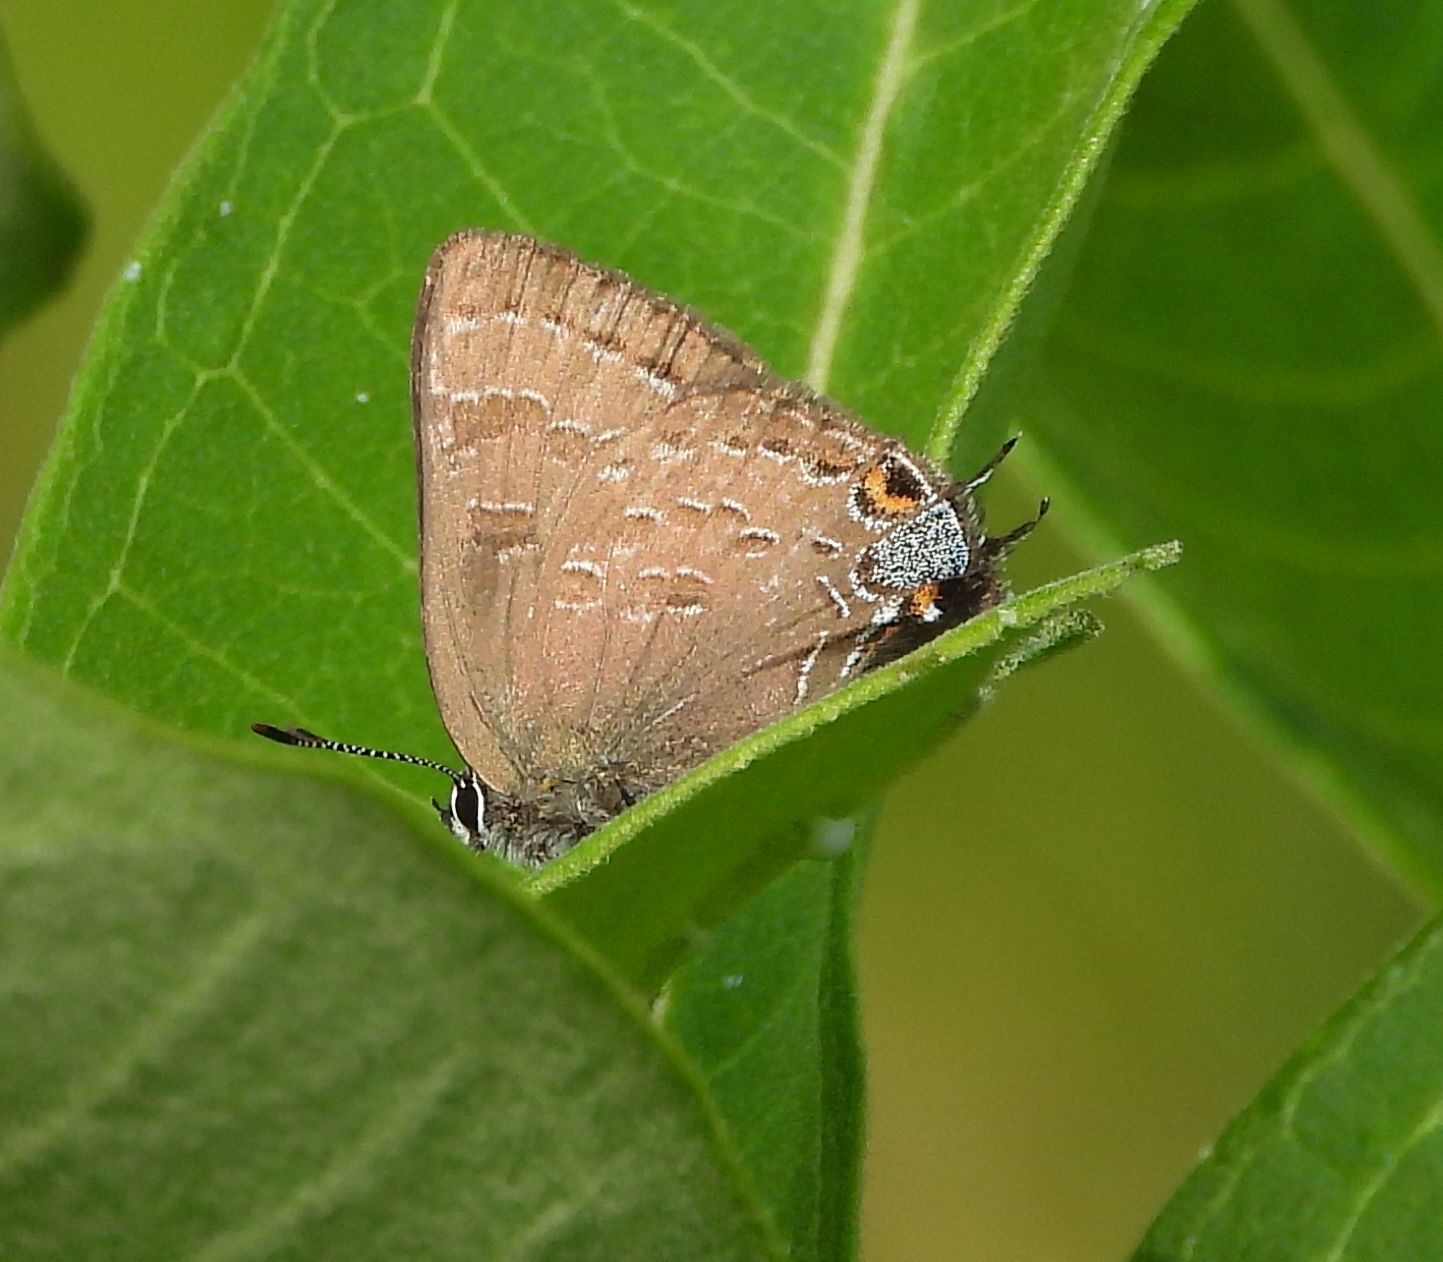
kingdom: Animalia
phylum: Arthropoda
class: Insecta
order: Lepidoptera
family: Lycaenidae
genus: Satyrium
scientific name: Satyrium calanus
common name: Banded hairstreak
